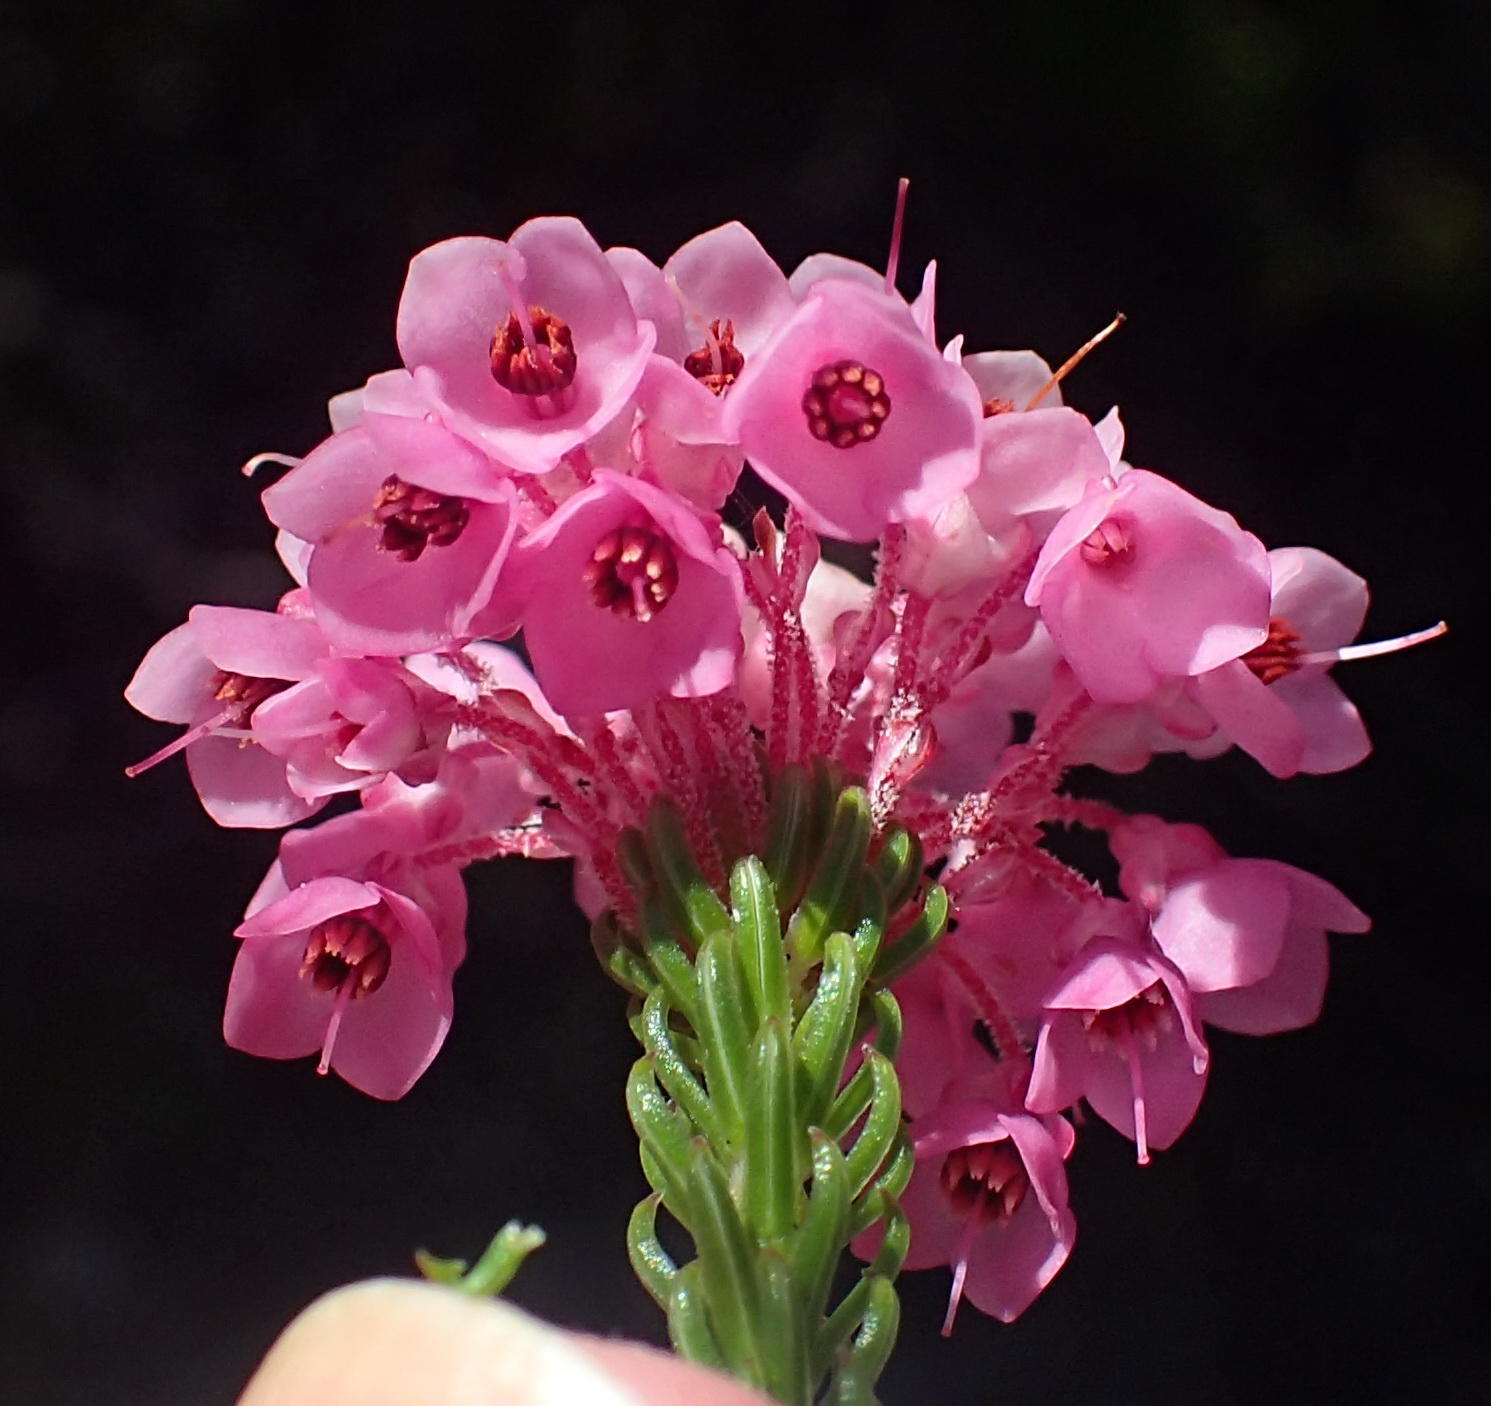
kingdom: Plantae
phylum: Tracheophyta
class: Magnoliopsida
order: Ericales
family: Ericaceae
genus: Erica
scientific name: Erica seriphiifolia
